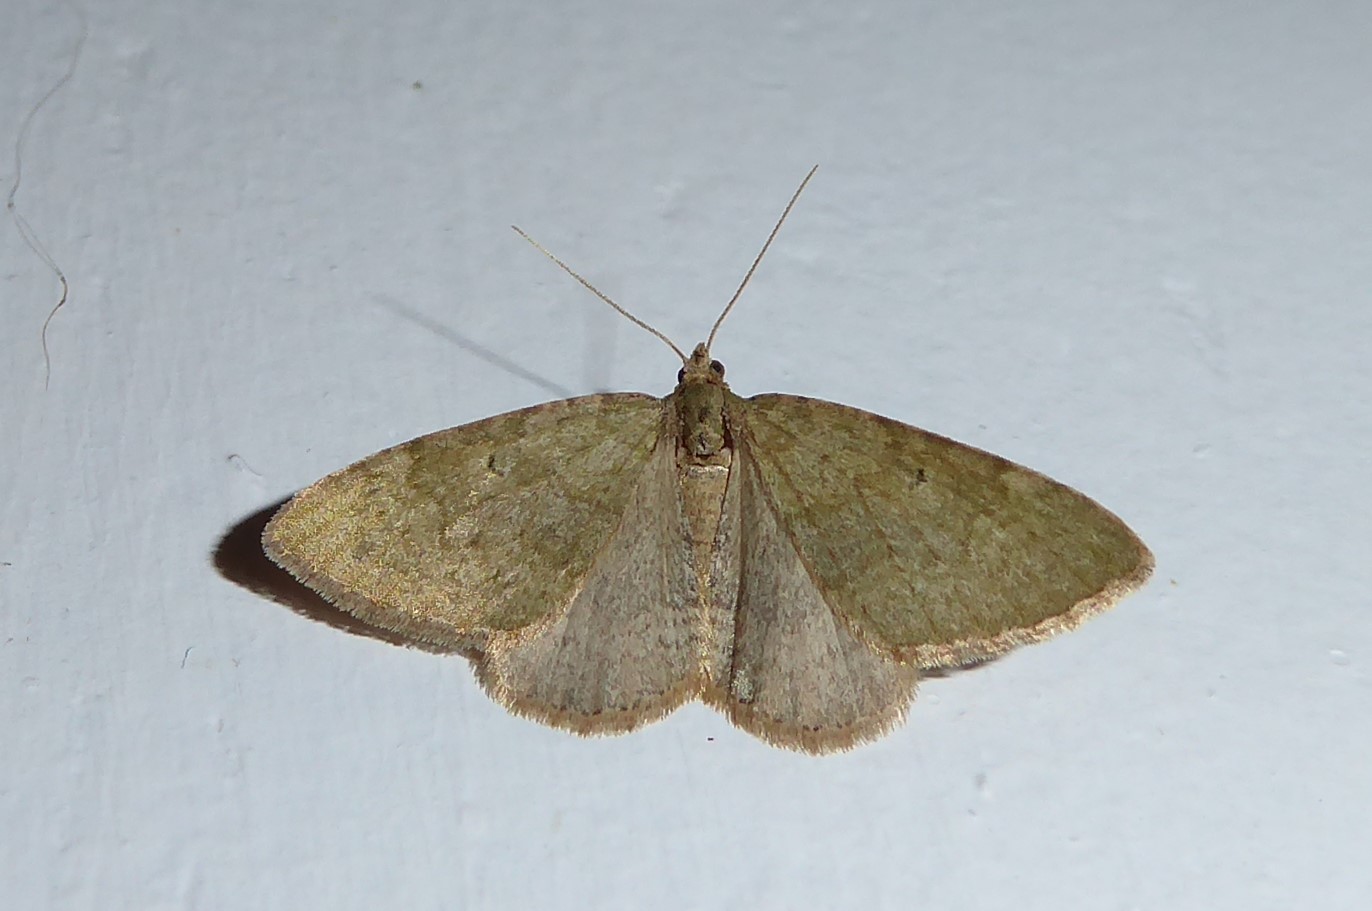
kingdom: Animalia
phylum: Arthropoda
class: Insecta
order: Lepidoptera
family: Geometridae
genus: Epyaxa
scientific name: Epyaxa rosearia
